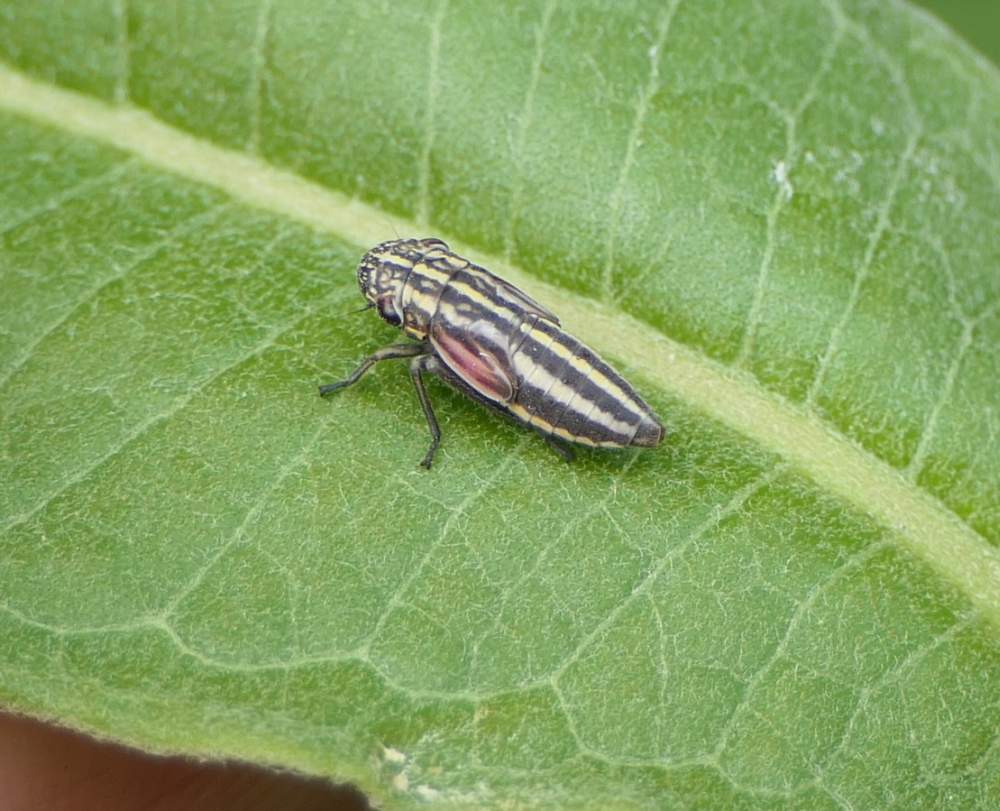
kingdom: Animalia
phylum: Arthropoda
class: Insecta
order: Hemiptera
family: Cicadellidae
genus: Cuerna
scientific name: Cuerna striata
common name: Striped leafhopper
